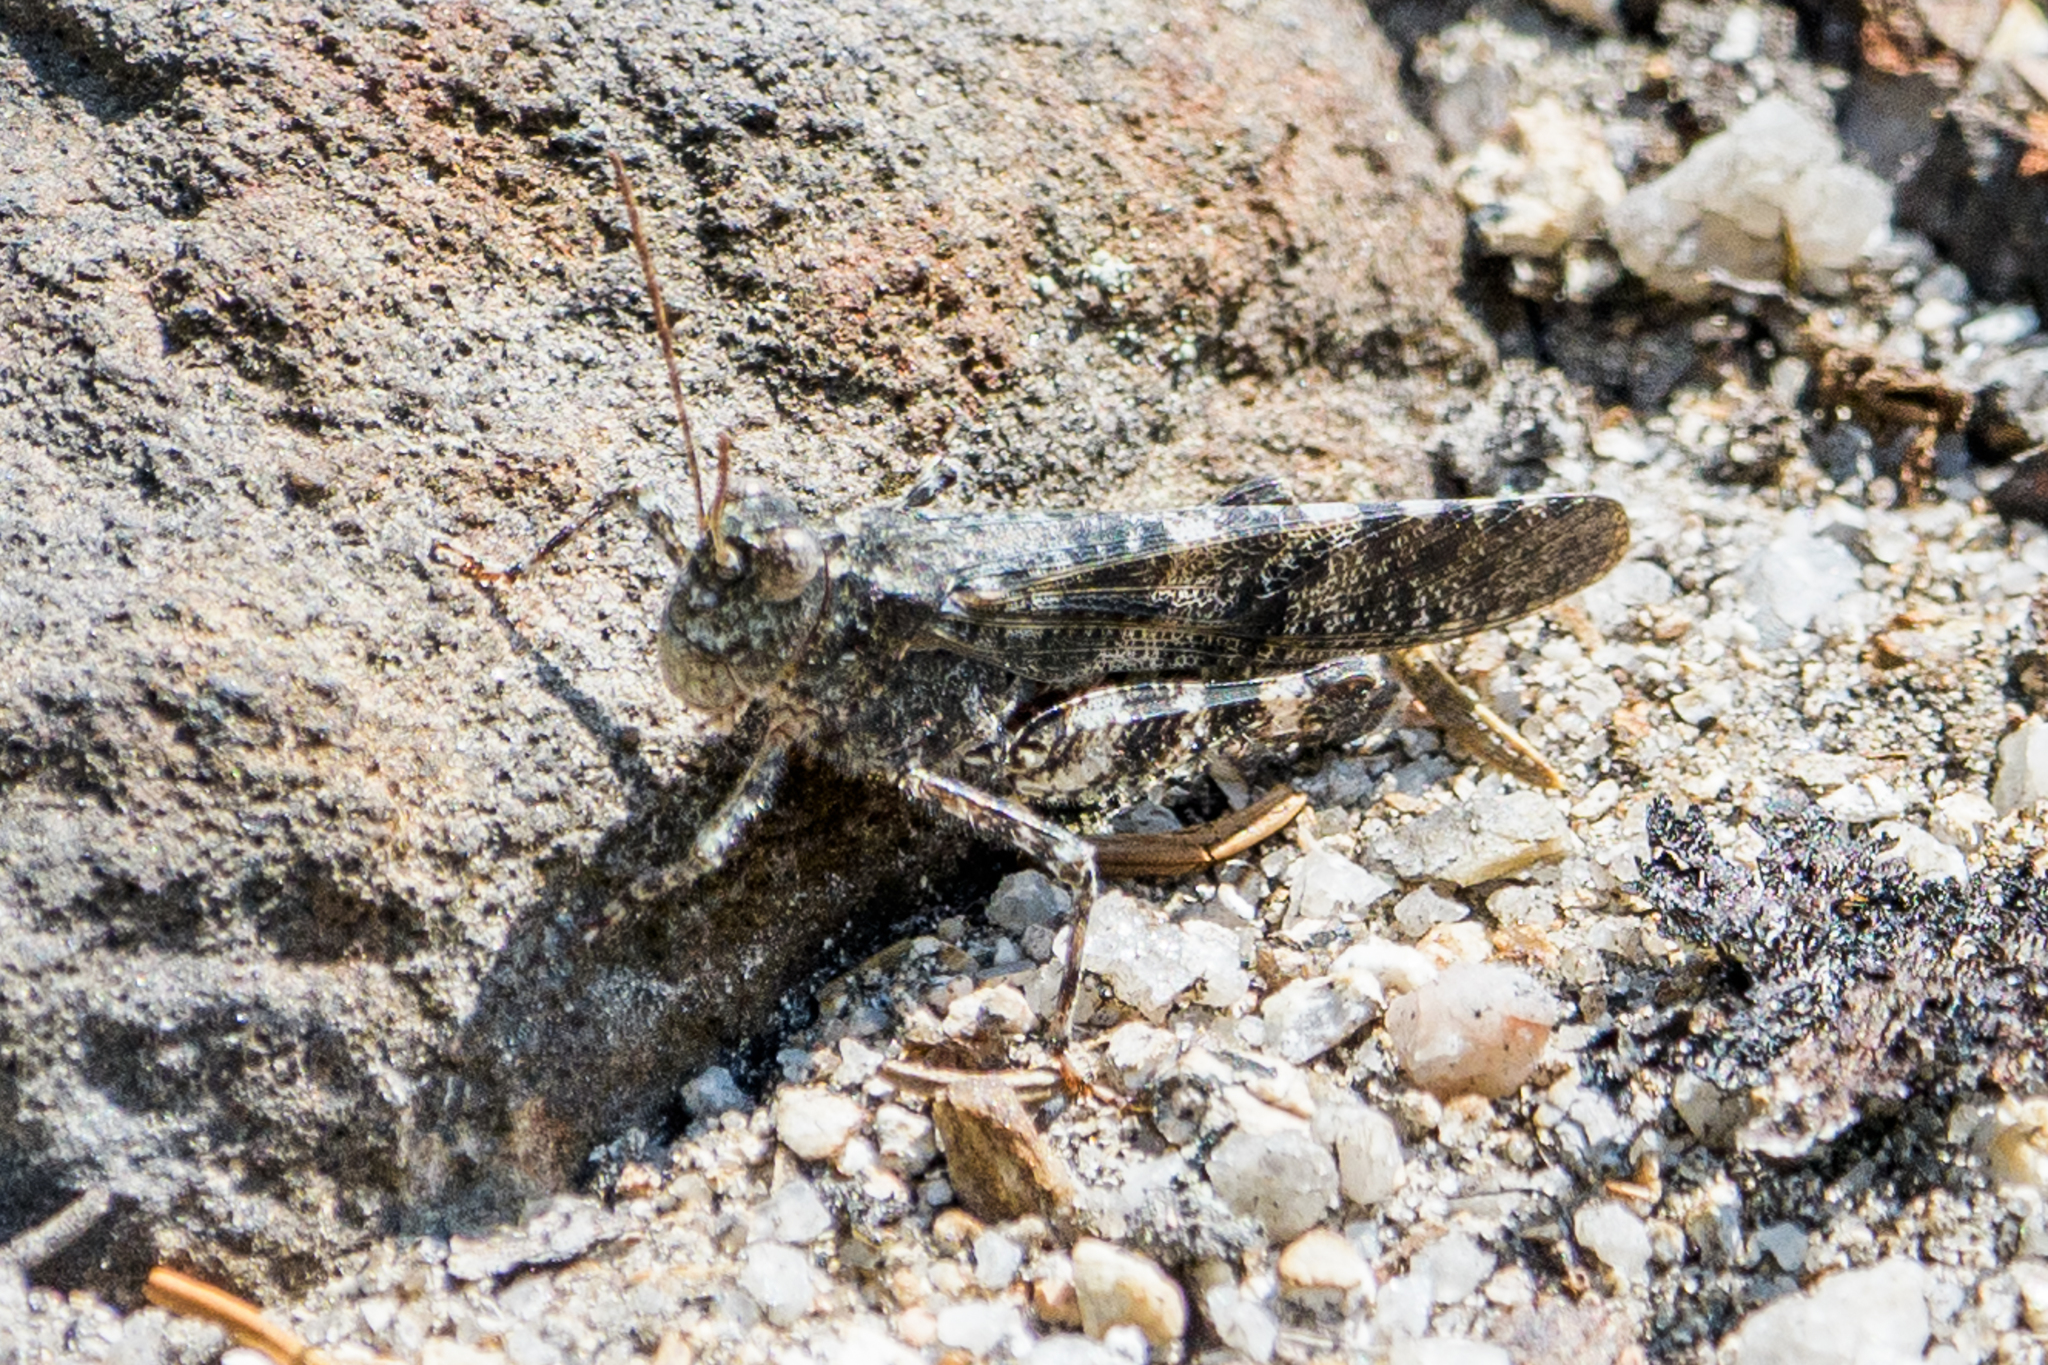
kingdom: Animalia
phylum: Arthropoda
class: Insecta
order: Orthoptera
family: Acrididae
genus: Trimerotropis
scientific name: Trimerotropis verruculata
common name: Crackling forest grasshopper
